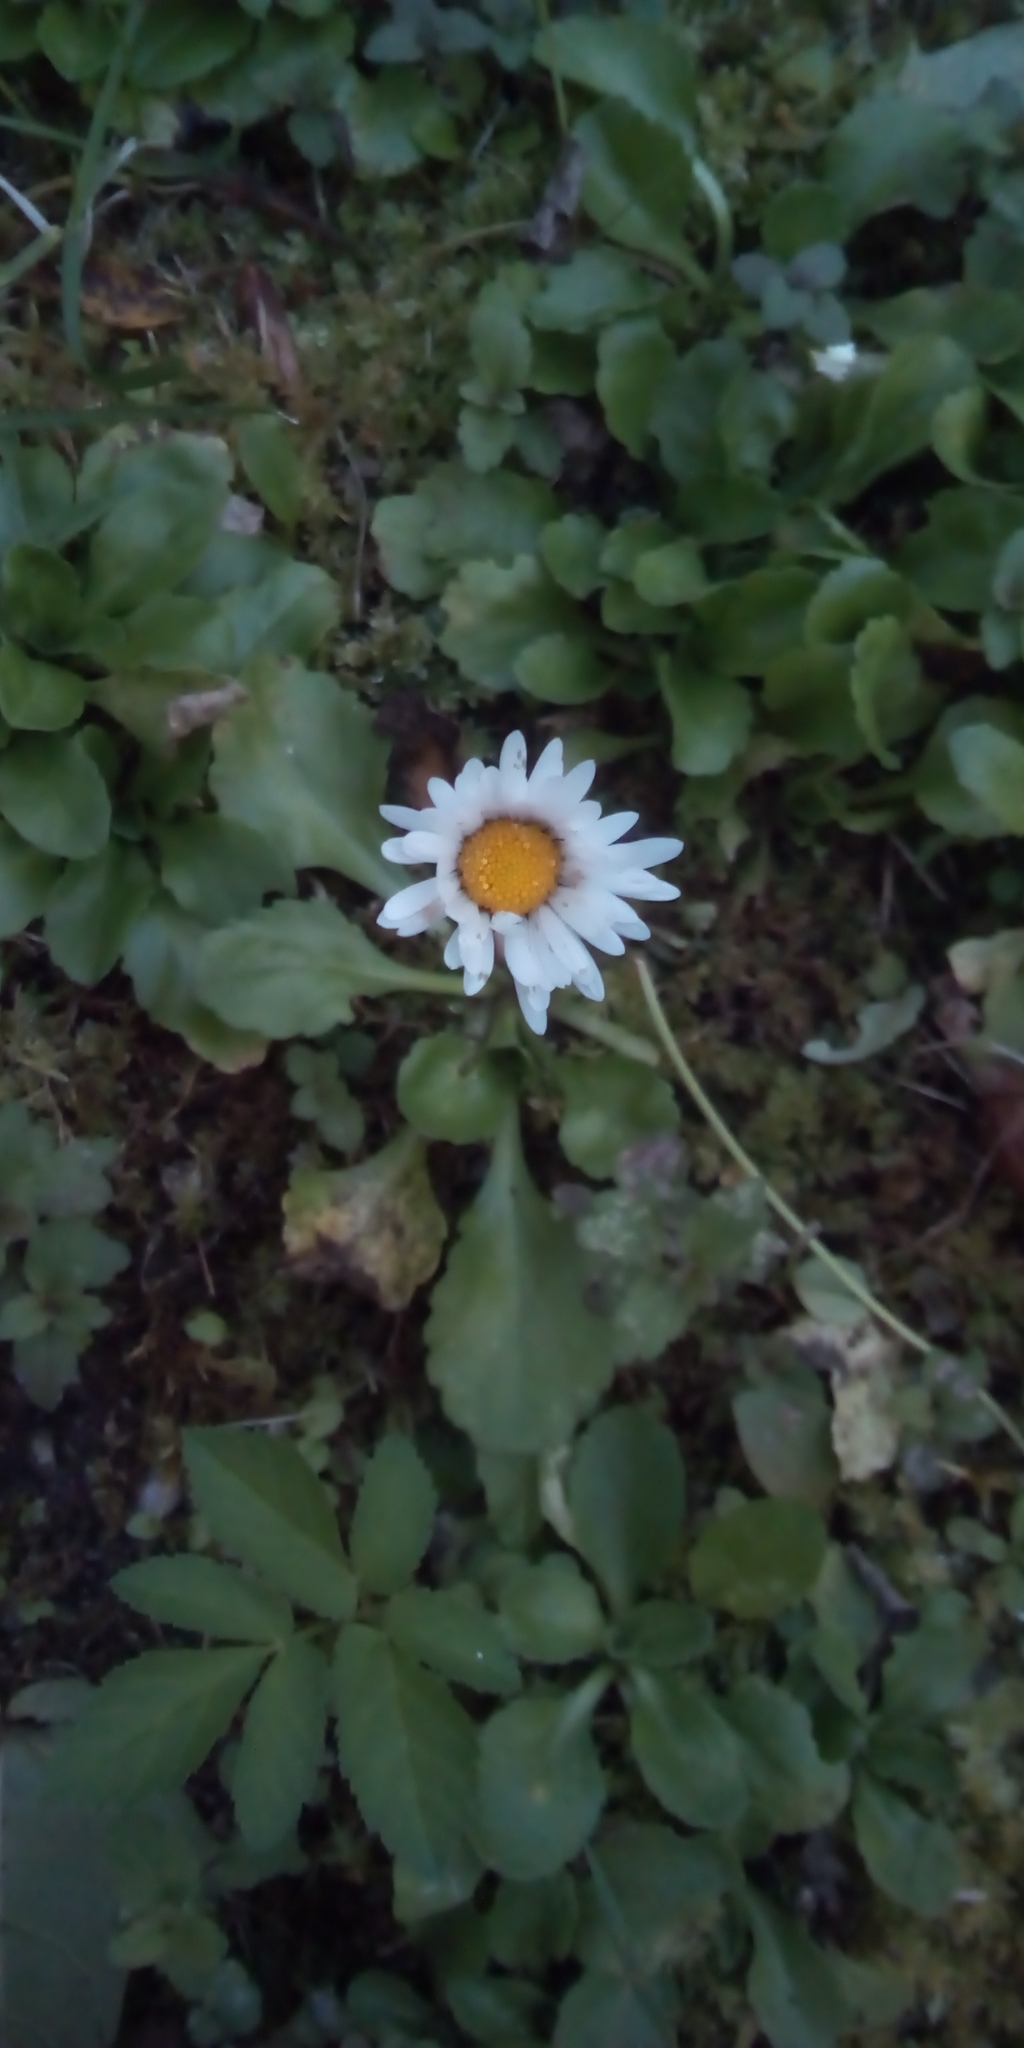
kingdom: Plantae
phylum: Tracheophyta
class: Magnoliopsida
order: Asterales
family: Asteraceae
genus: Bellis
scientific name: Bellis perennis
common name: Lawndaisy
